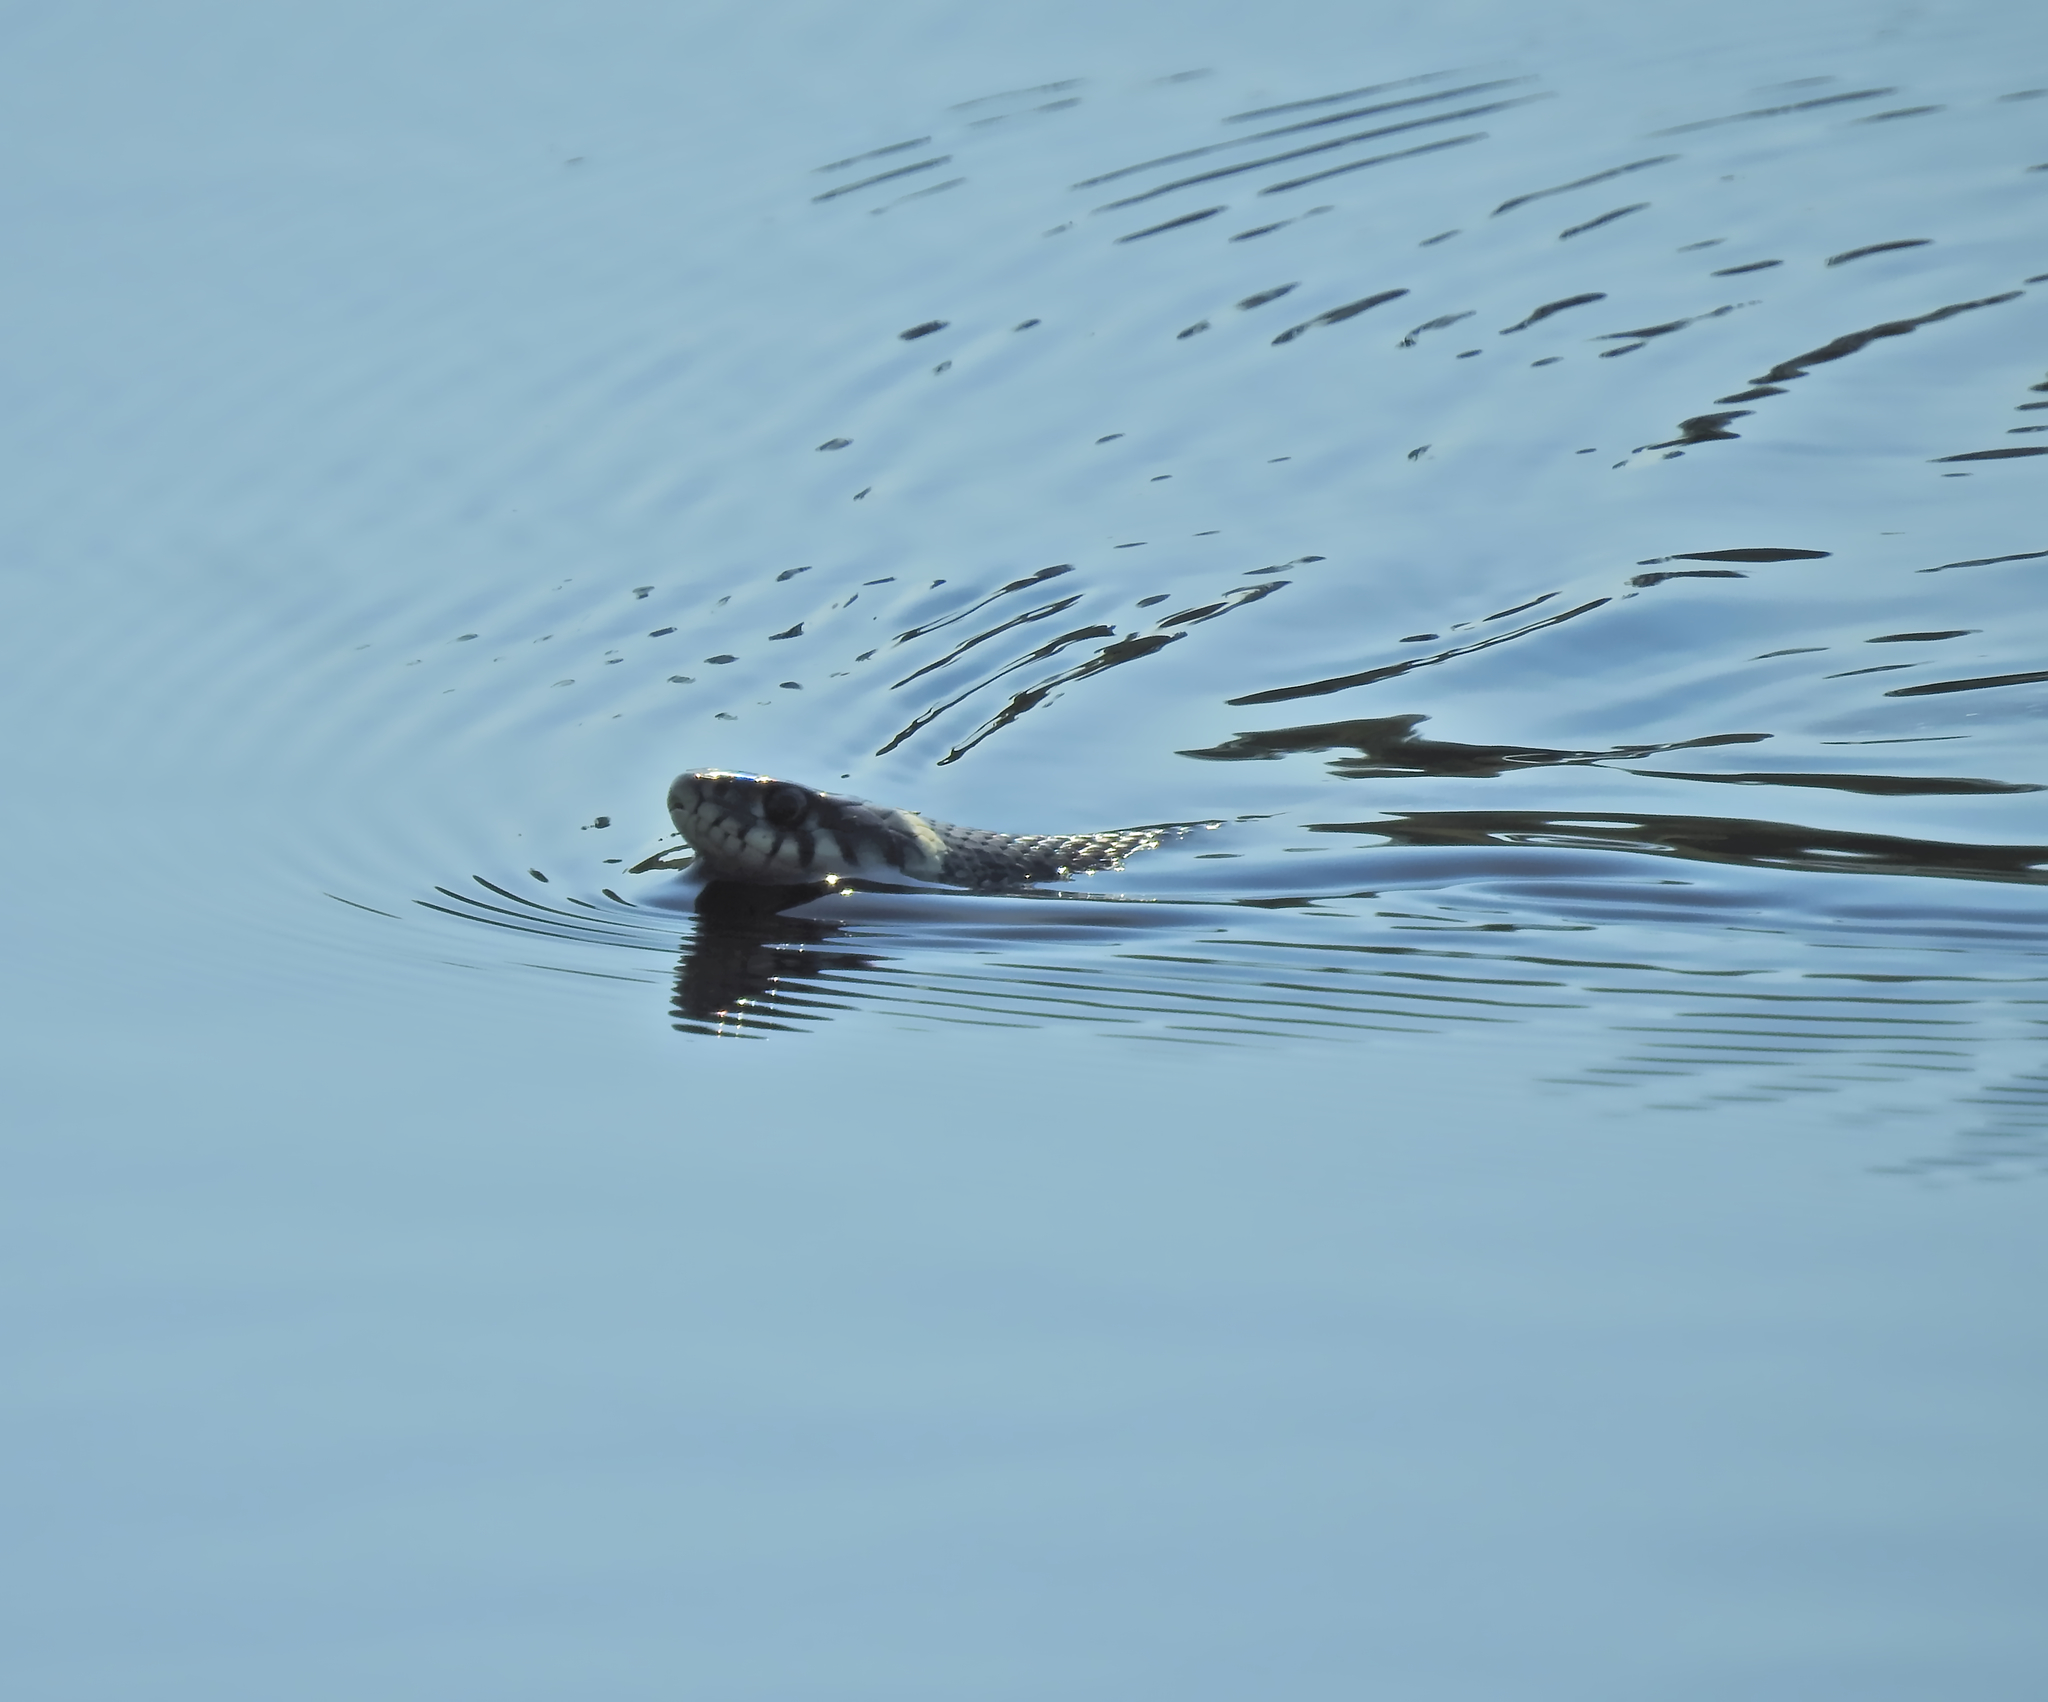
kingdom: Animalia
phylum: Chordata
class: Squamata
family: Colubridae
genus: Natrix
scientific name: Natrix natrix
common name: Grass snake
